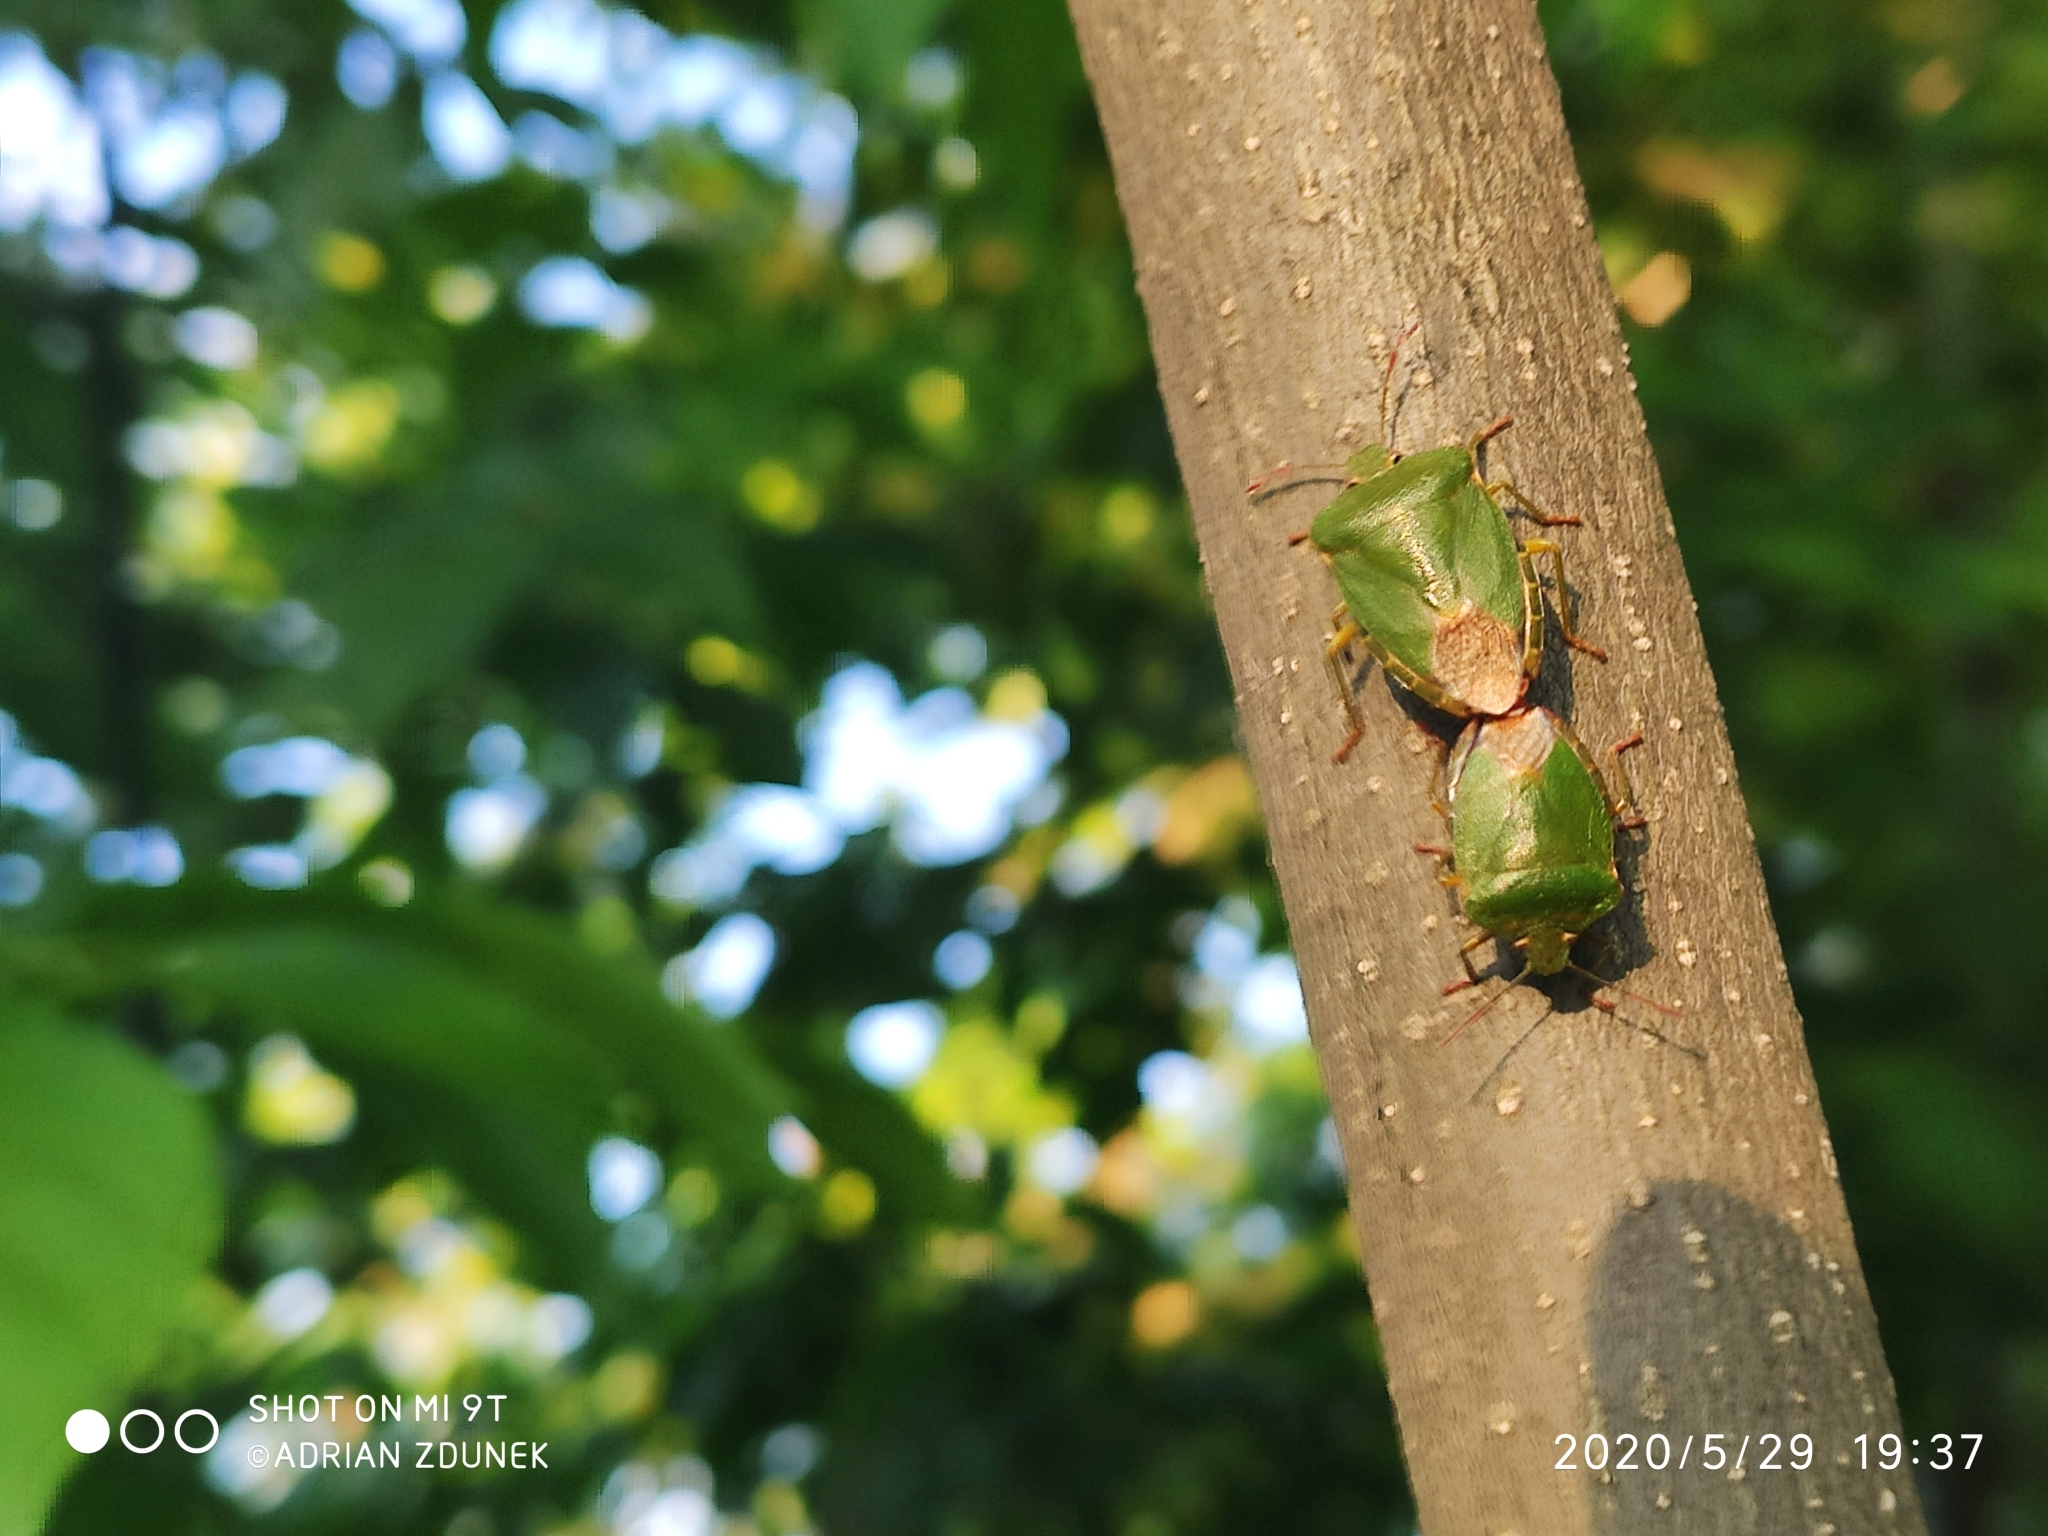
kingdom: Animalia
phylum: Arthropoda
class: Insecta
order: Hemiptera
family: Pentatomidae
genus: Palomena
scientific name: Palomena prasina
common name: Green shieldbug
